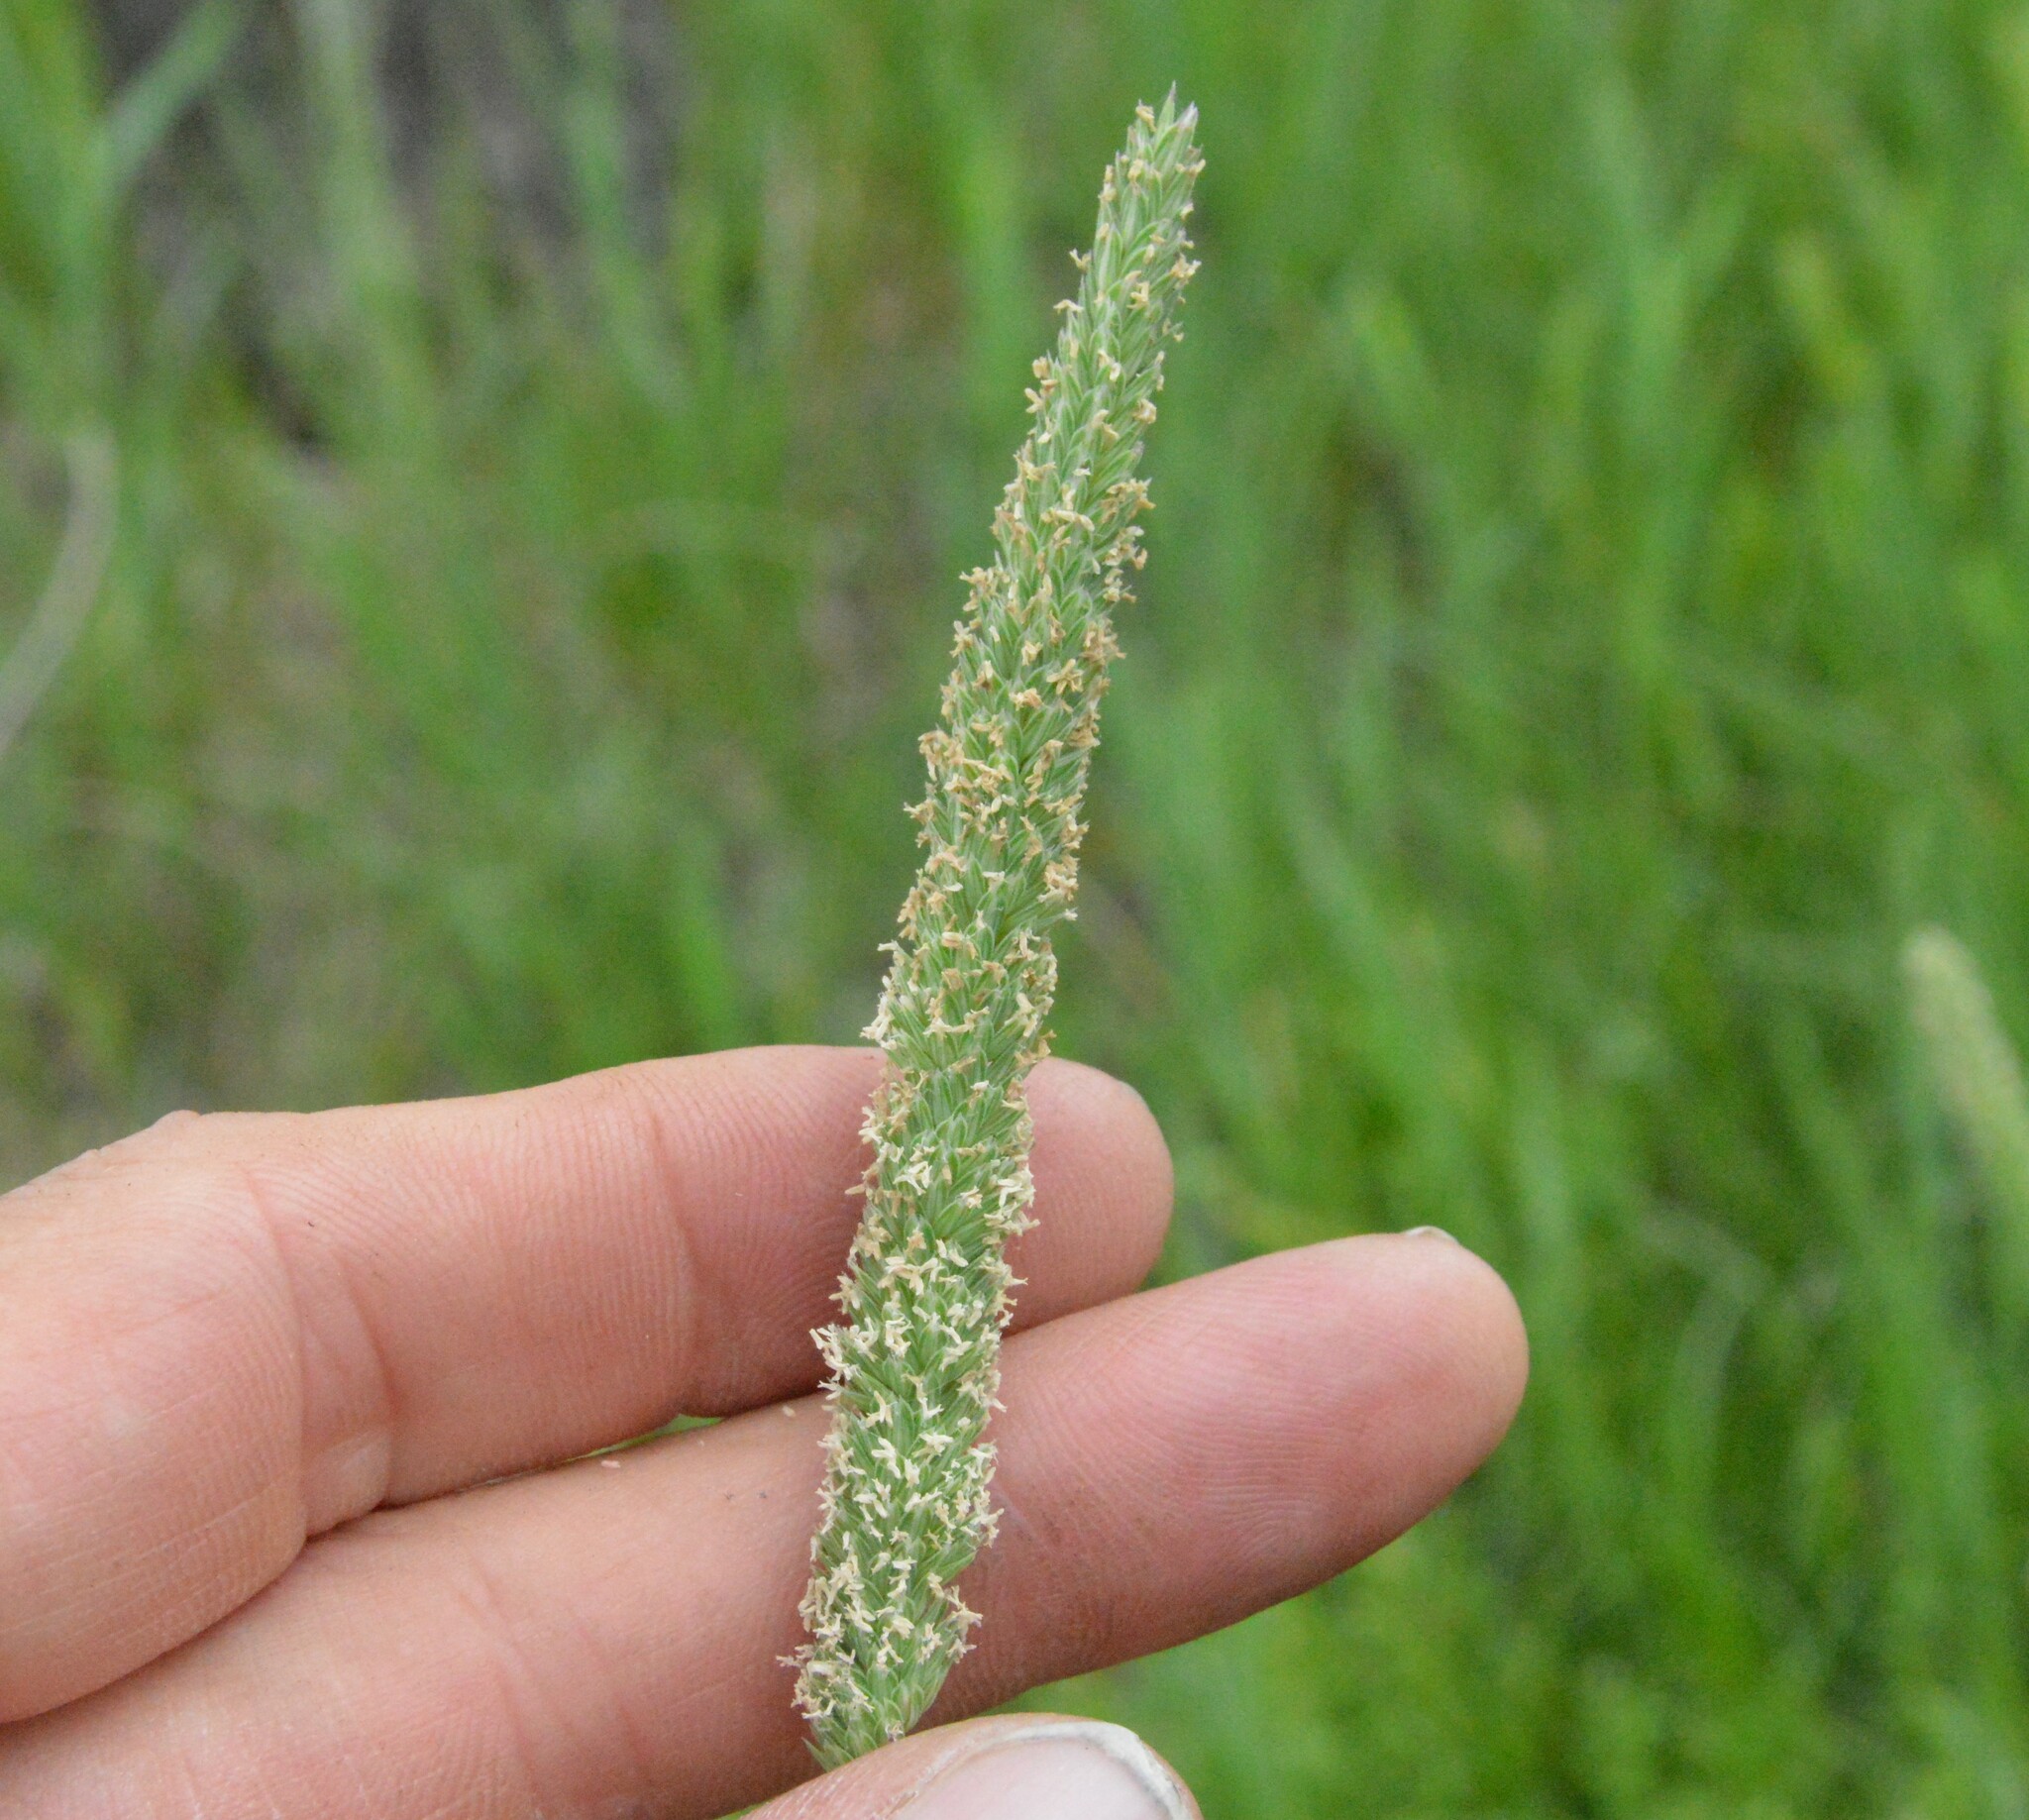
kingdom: Plantae
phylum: Tracheophyta
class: Liliopsida
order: Poales
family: Poaceae
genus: Phalaris
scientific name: Phalaris angusta
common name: Narrow canary grass
